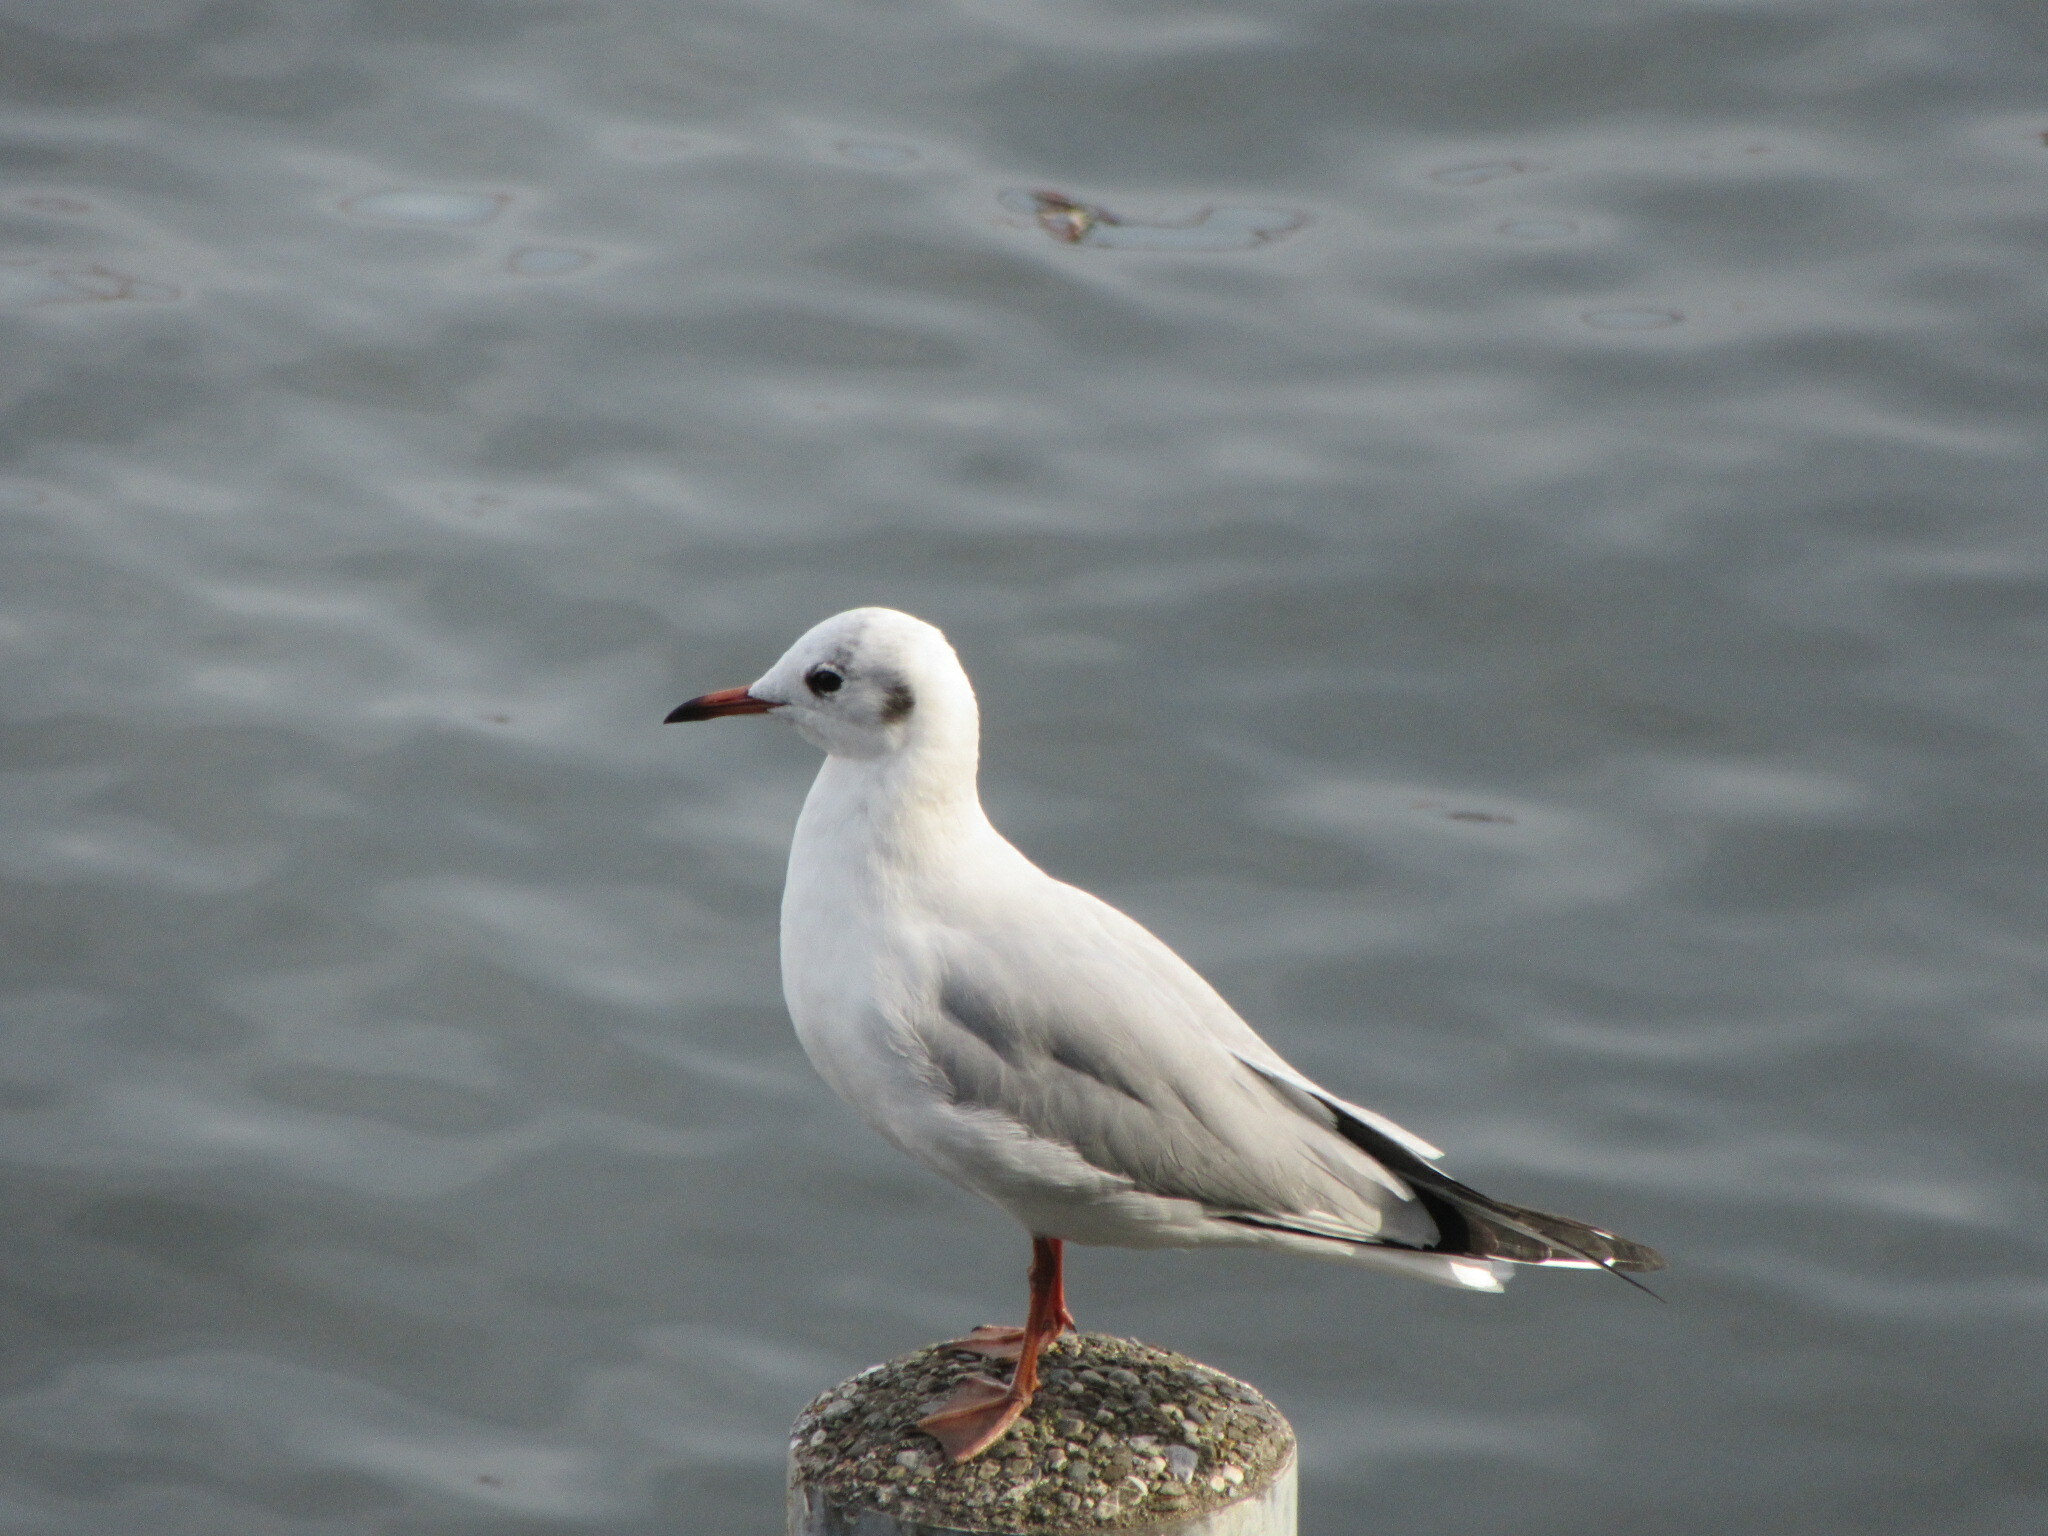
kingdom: Animalia
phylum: Chordata
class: Aves
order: Charadriiformes
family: Laridae
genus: Chroicocephalus
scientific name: Chroicocephalus ridibundus
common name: Black-headed gull
